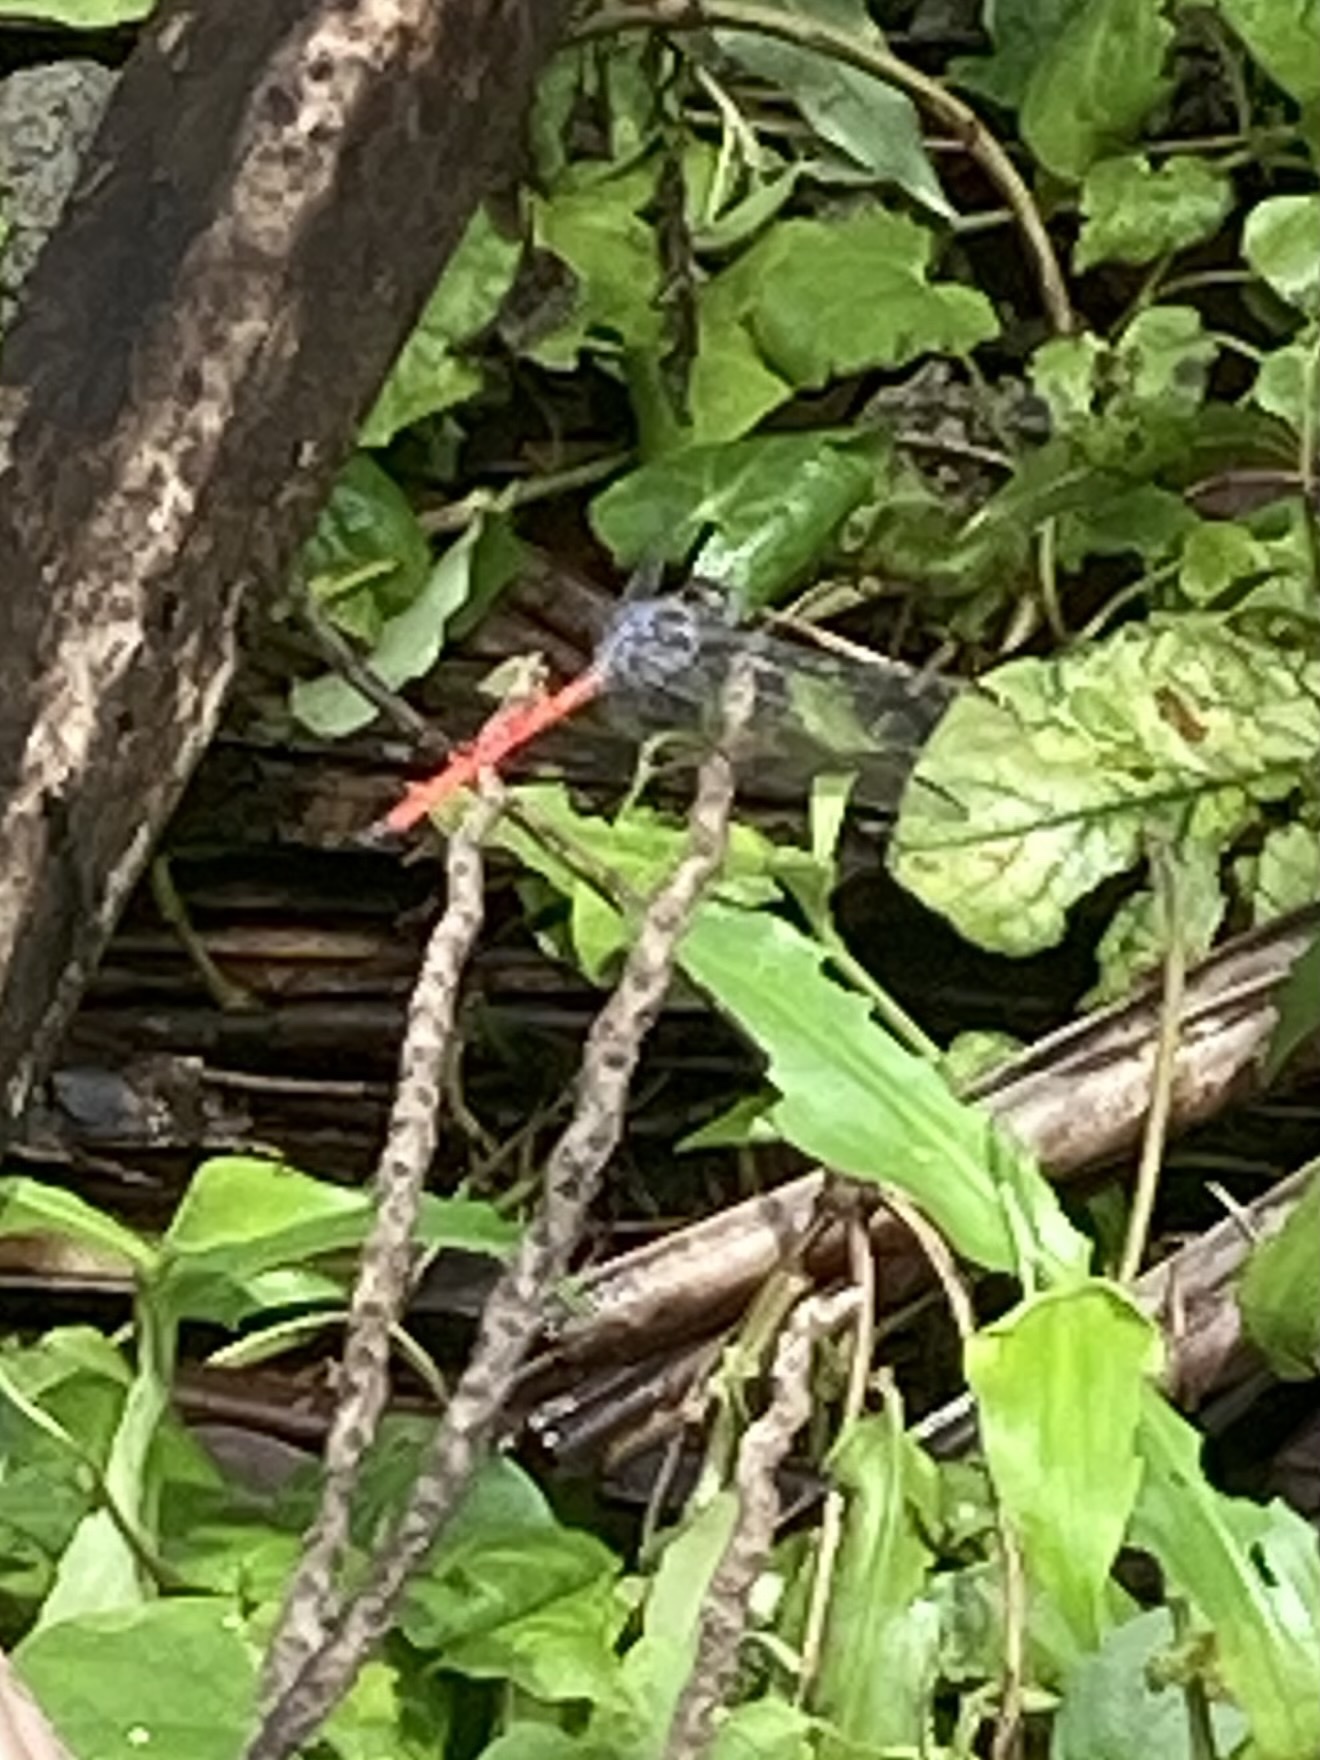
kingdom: Animalia
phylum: Arthropoda
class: Insecta
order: Odonata
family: Libellulidae
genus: Lathrecista
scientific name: Lathrecista asiatica
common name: Scarlet grenadier
